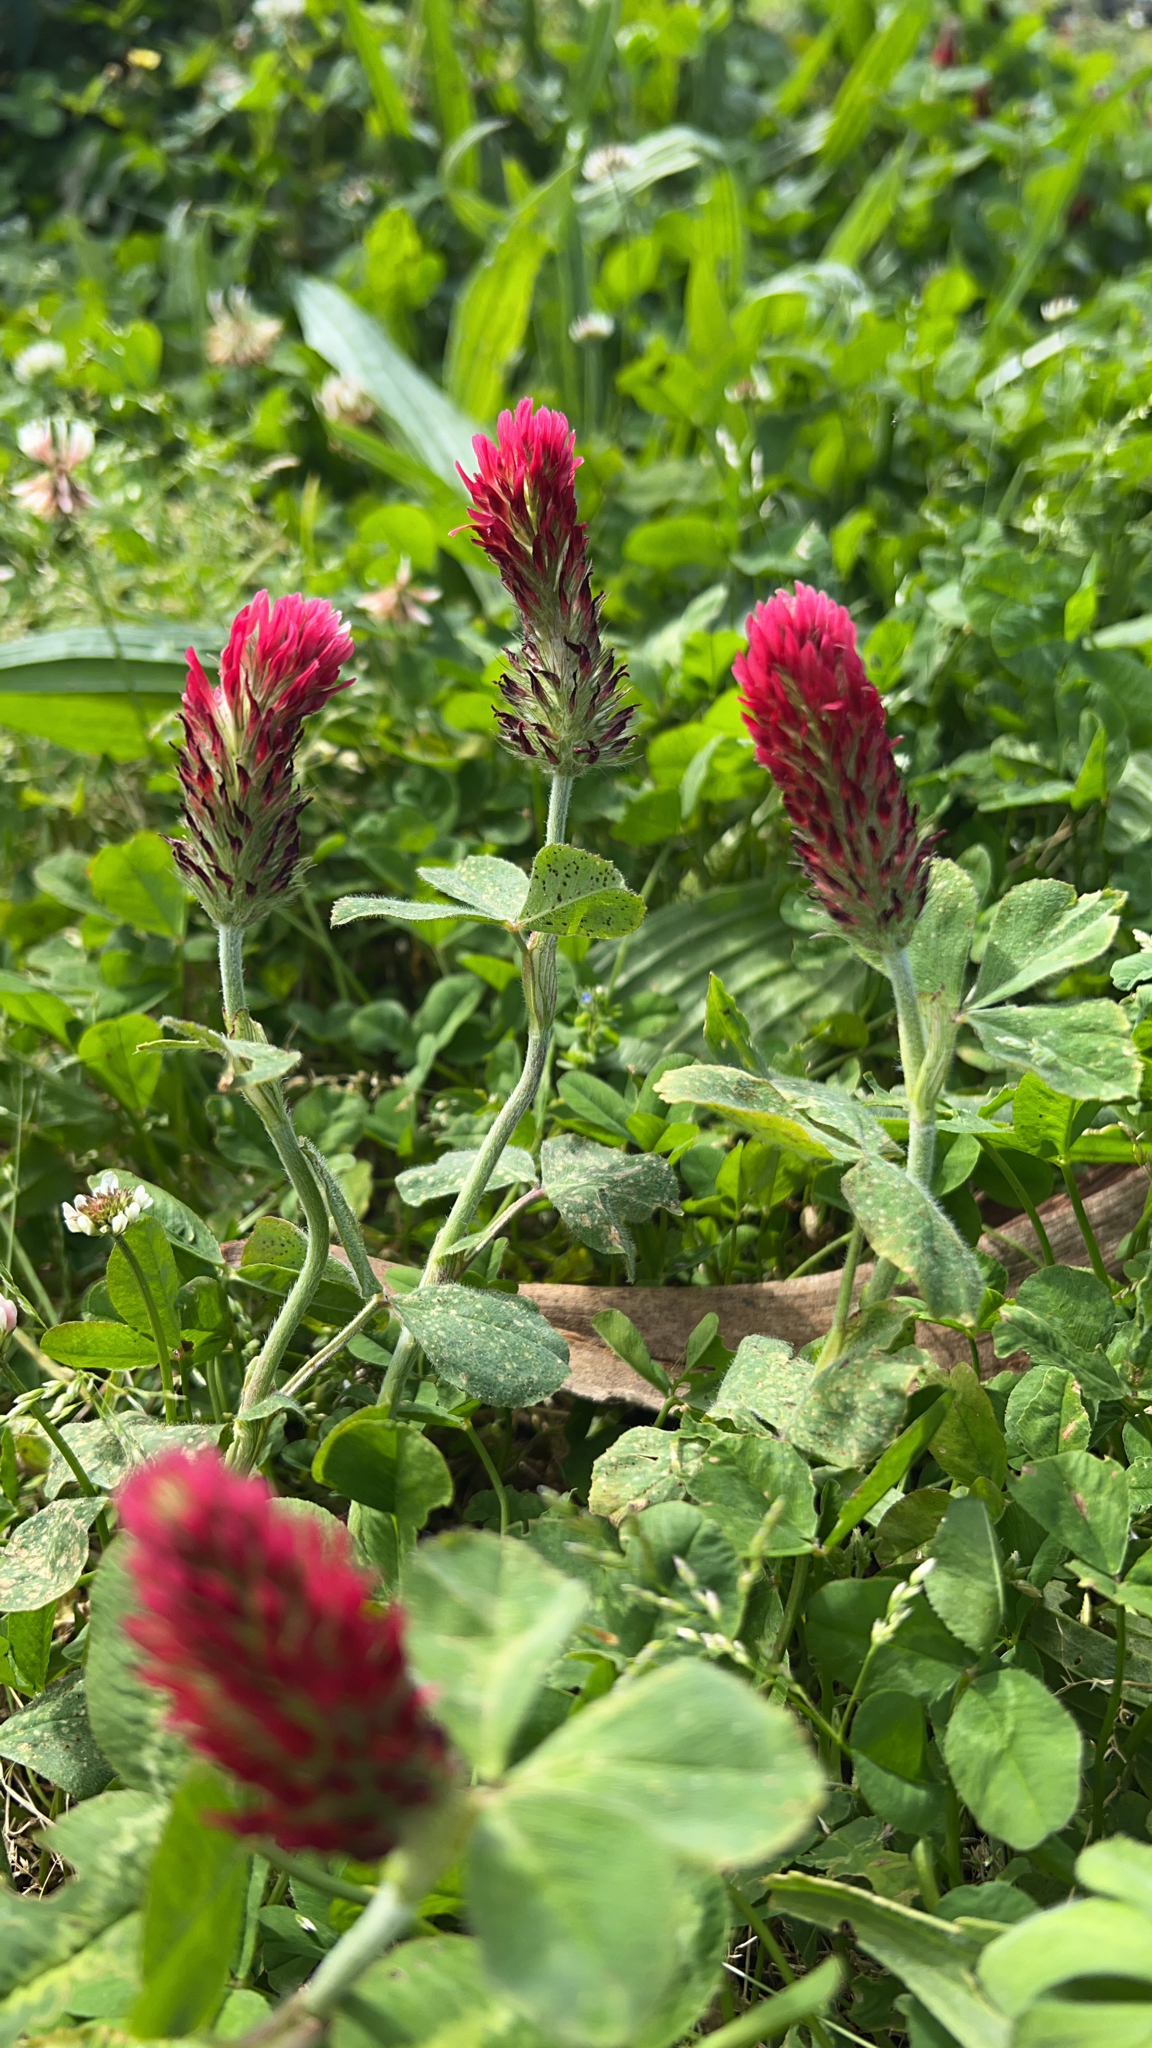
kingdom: Plantae
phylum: Tracheophyta
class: Magnoliopsida
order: Fabales
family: Fabaceae
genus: Trifolium
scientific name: Trifolium incarnatum
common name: Crimson clover
